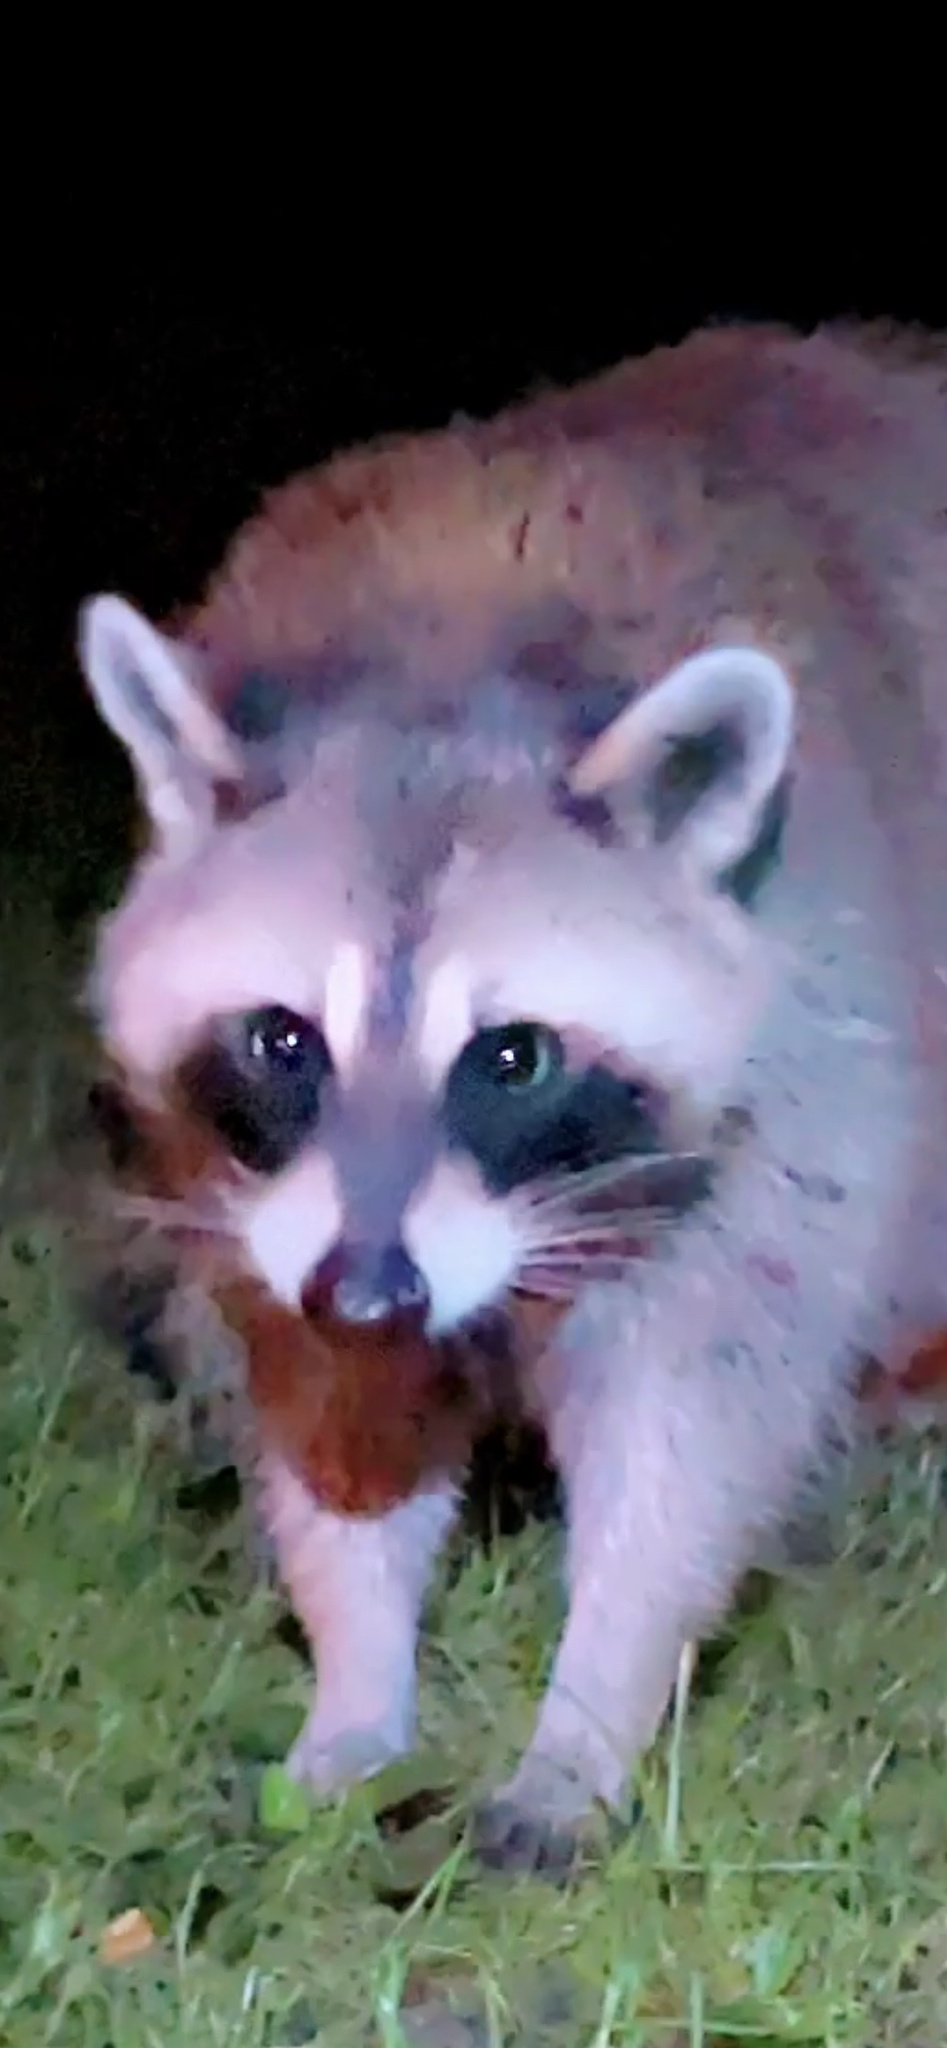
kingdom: Animalia
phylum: Chordata
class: Mammalia
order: Carnivora
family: Procyonidae
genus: Procyon
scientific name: Procyon lotor
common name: Raccoon
